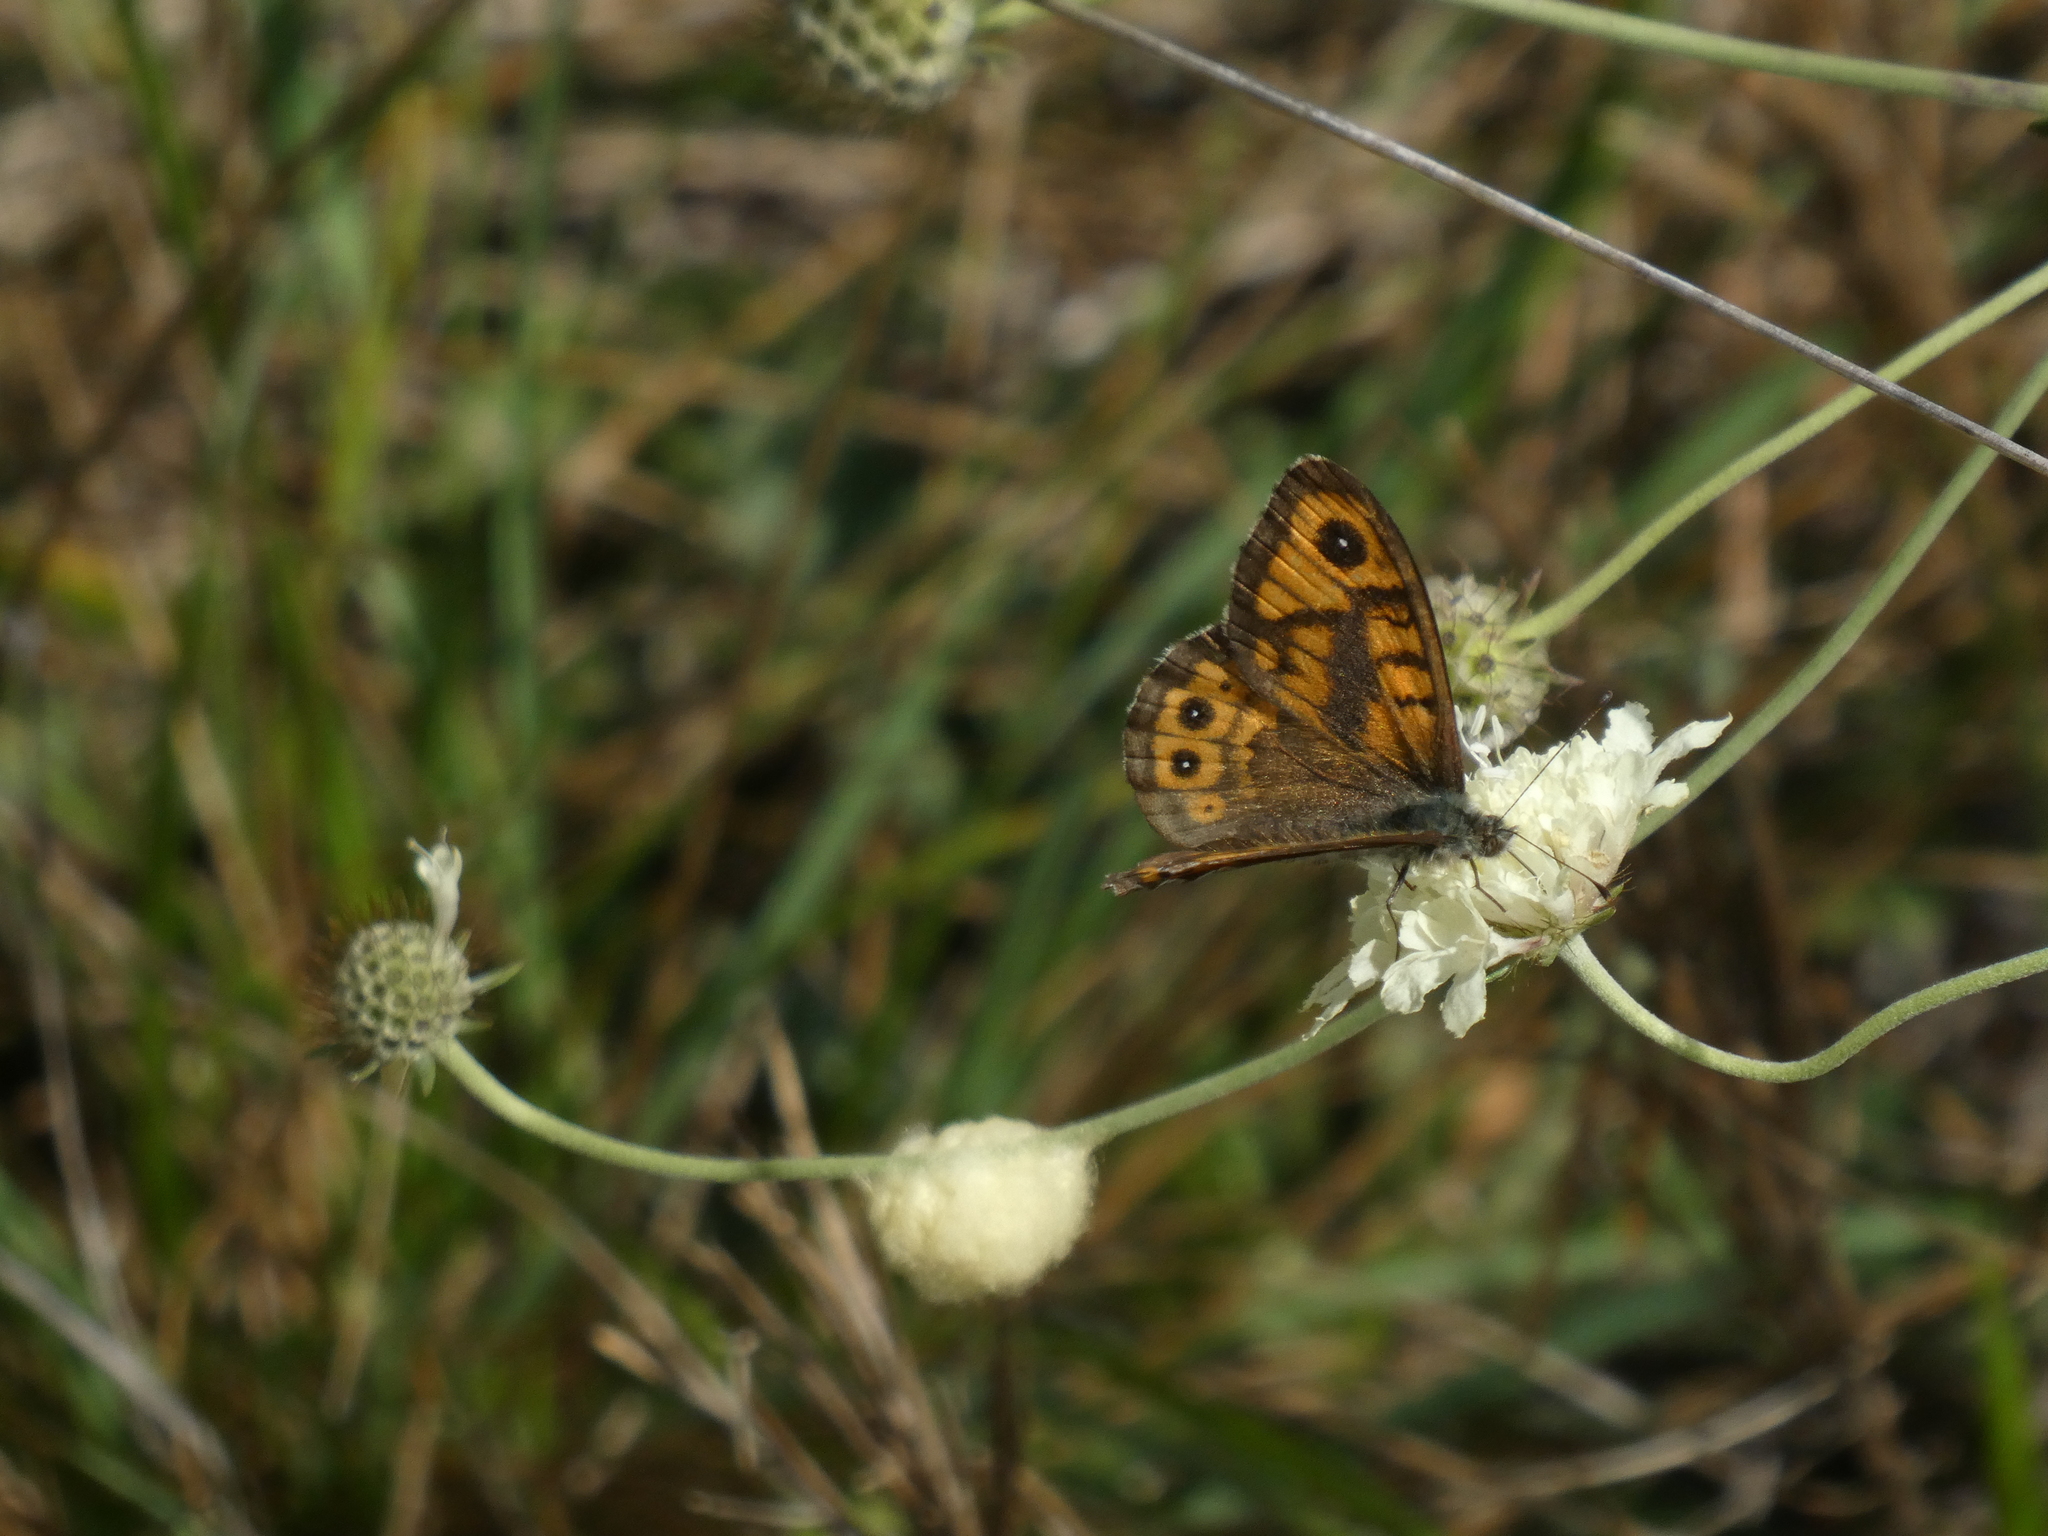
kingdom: Animalia
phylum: Arthropoda
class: Insecta
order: Lepidoptera
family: Nymphalidae
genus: Pararge
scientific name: Pararge Lasiommata megera
